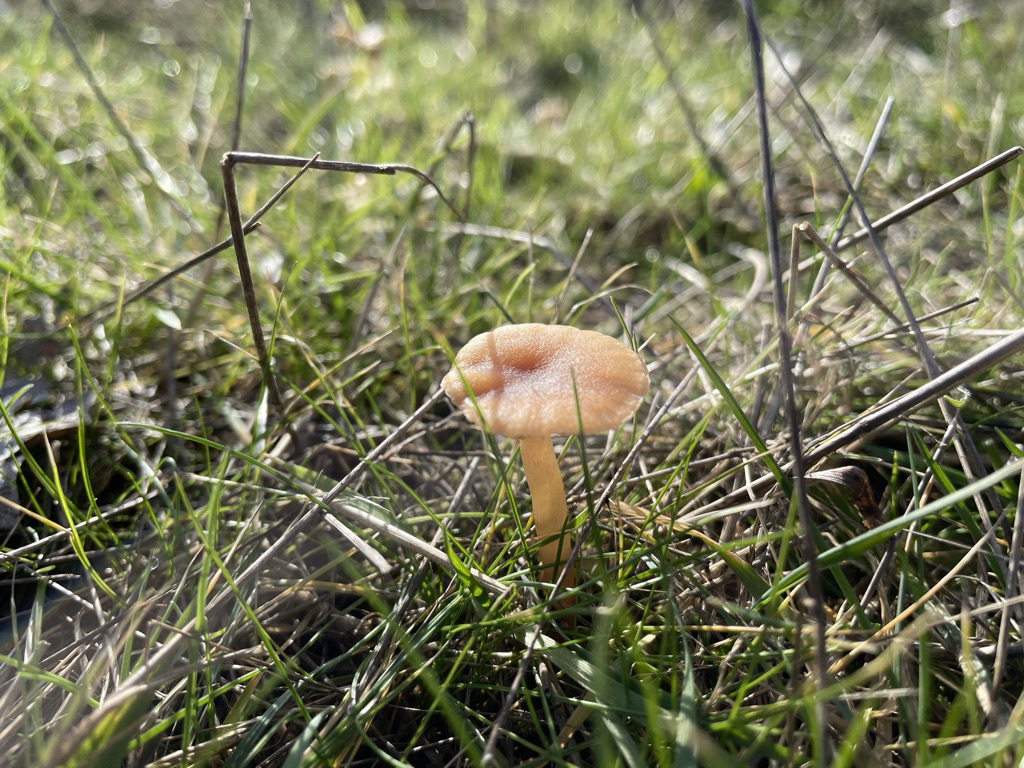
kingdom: Fungi
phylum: Basidiomycota
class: Agaricomycetes
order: Agaricales
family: Hydnangiaceae
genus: Laccaria
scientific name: Laccaria laccata
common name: Deceiver
